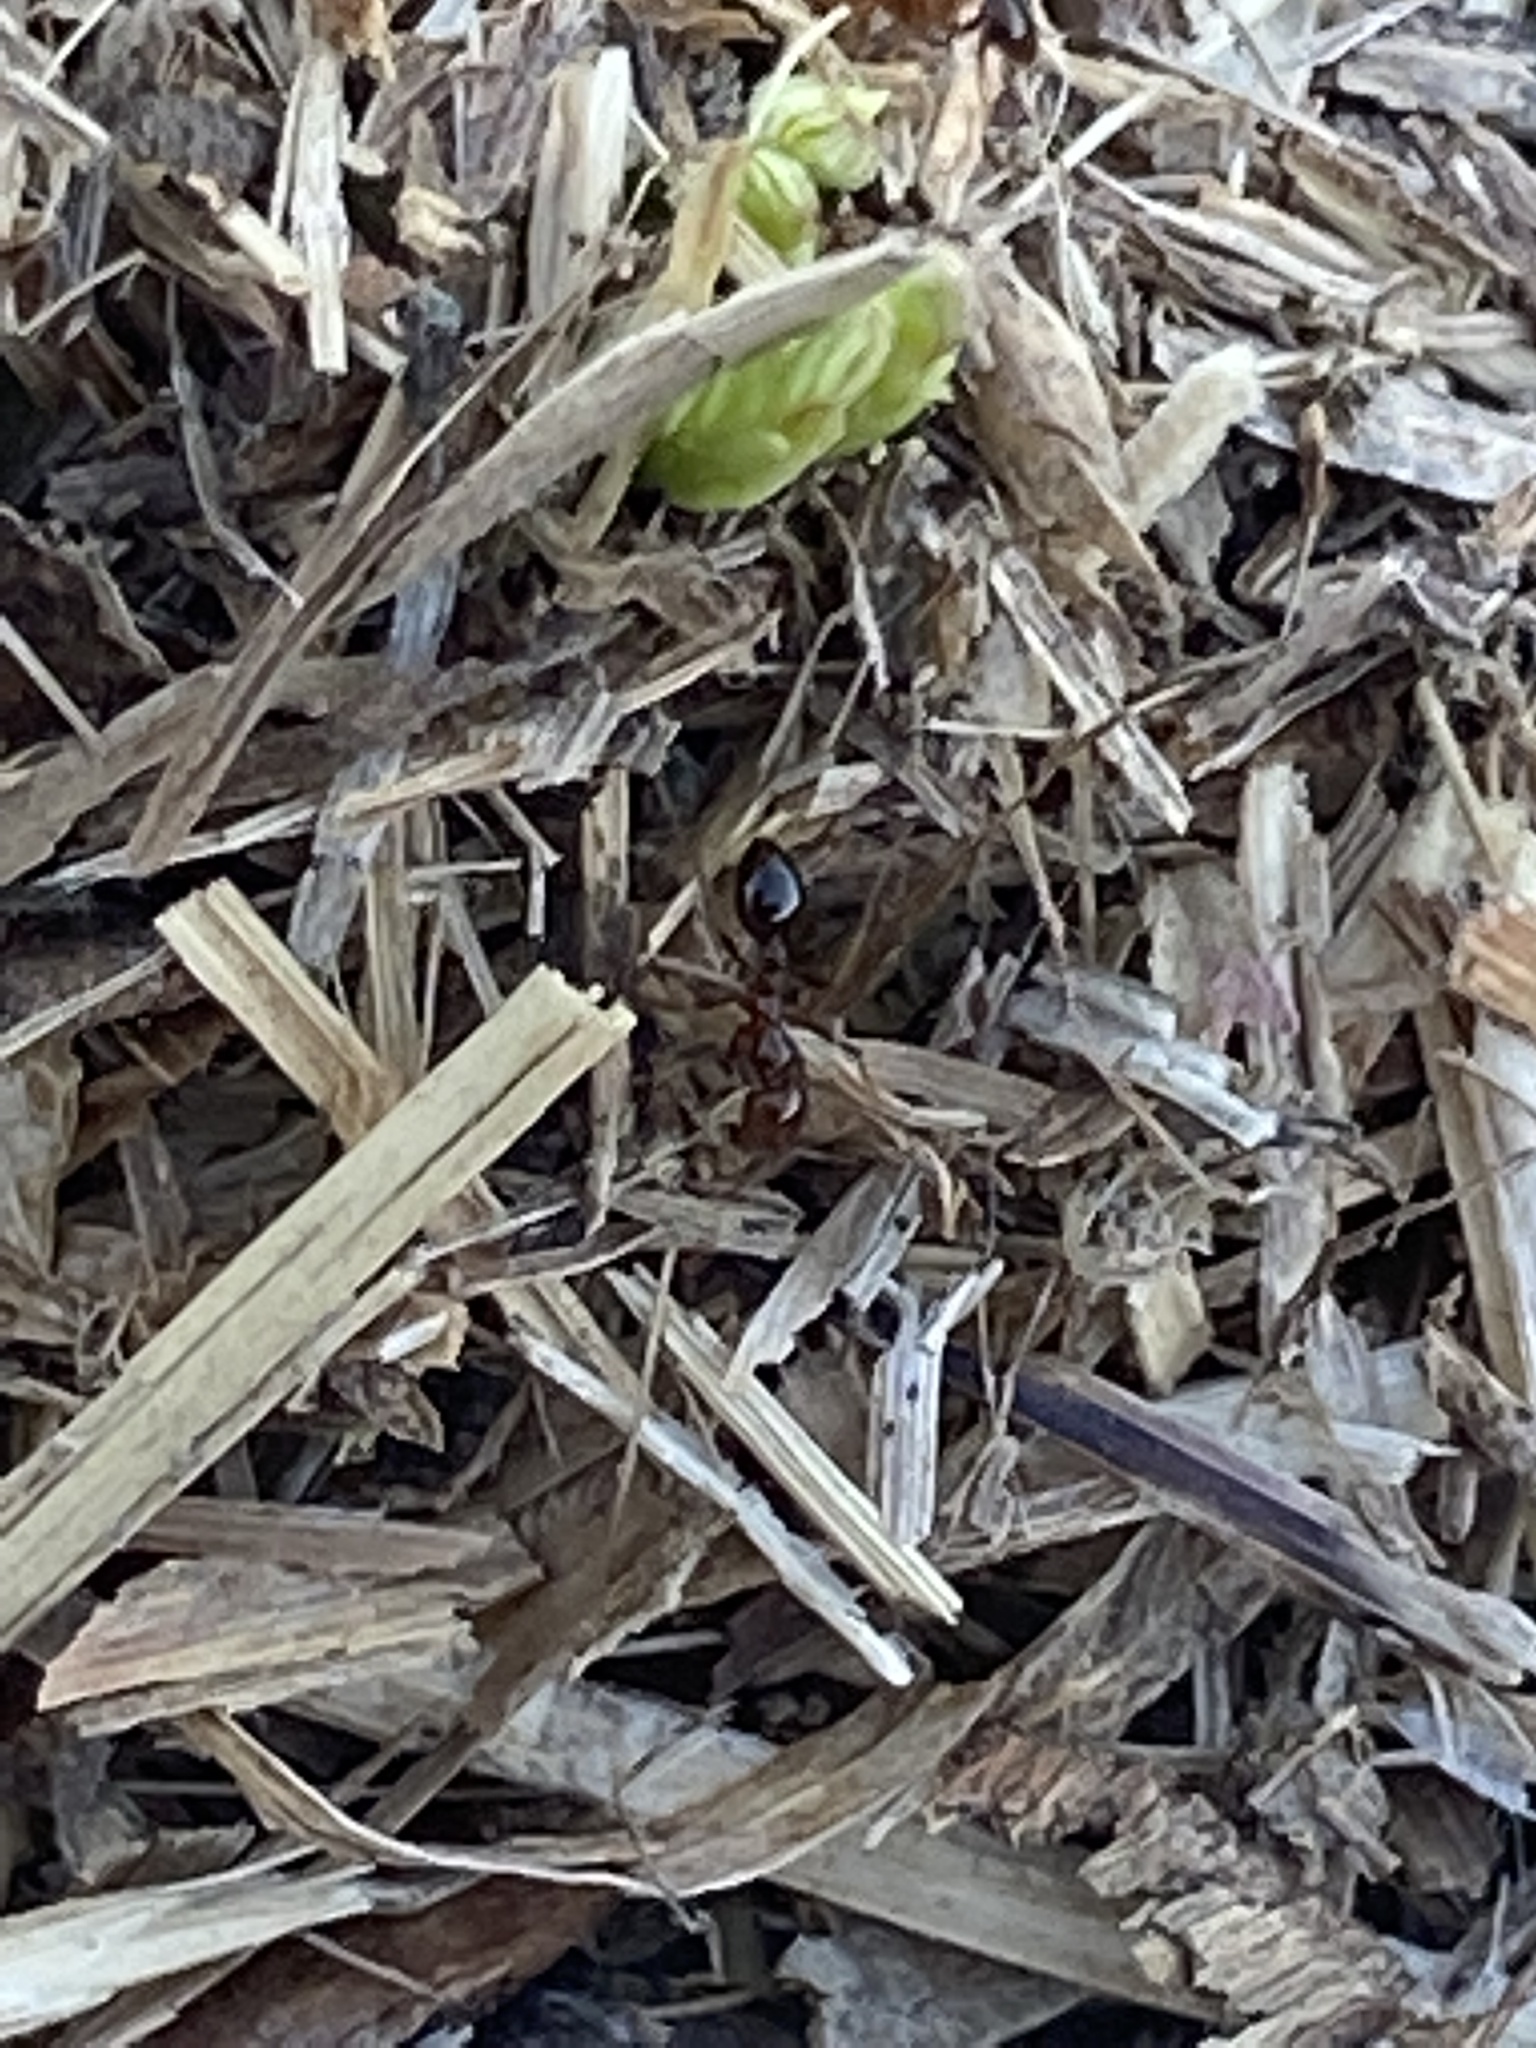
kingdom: Animalia
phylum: Arthropoda
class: Insecta
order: Hymenoptera
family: Formicidae
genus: Solenopsis
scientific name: Solenopsis invicta
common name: Red imported fire ant
